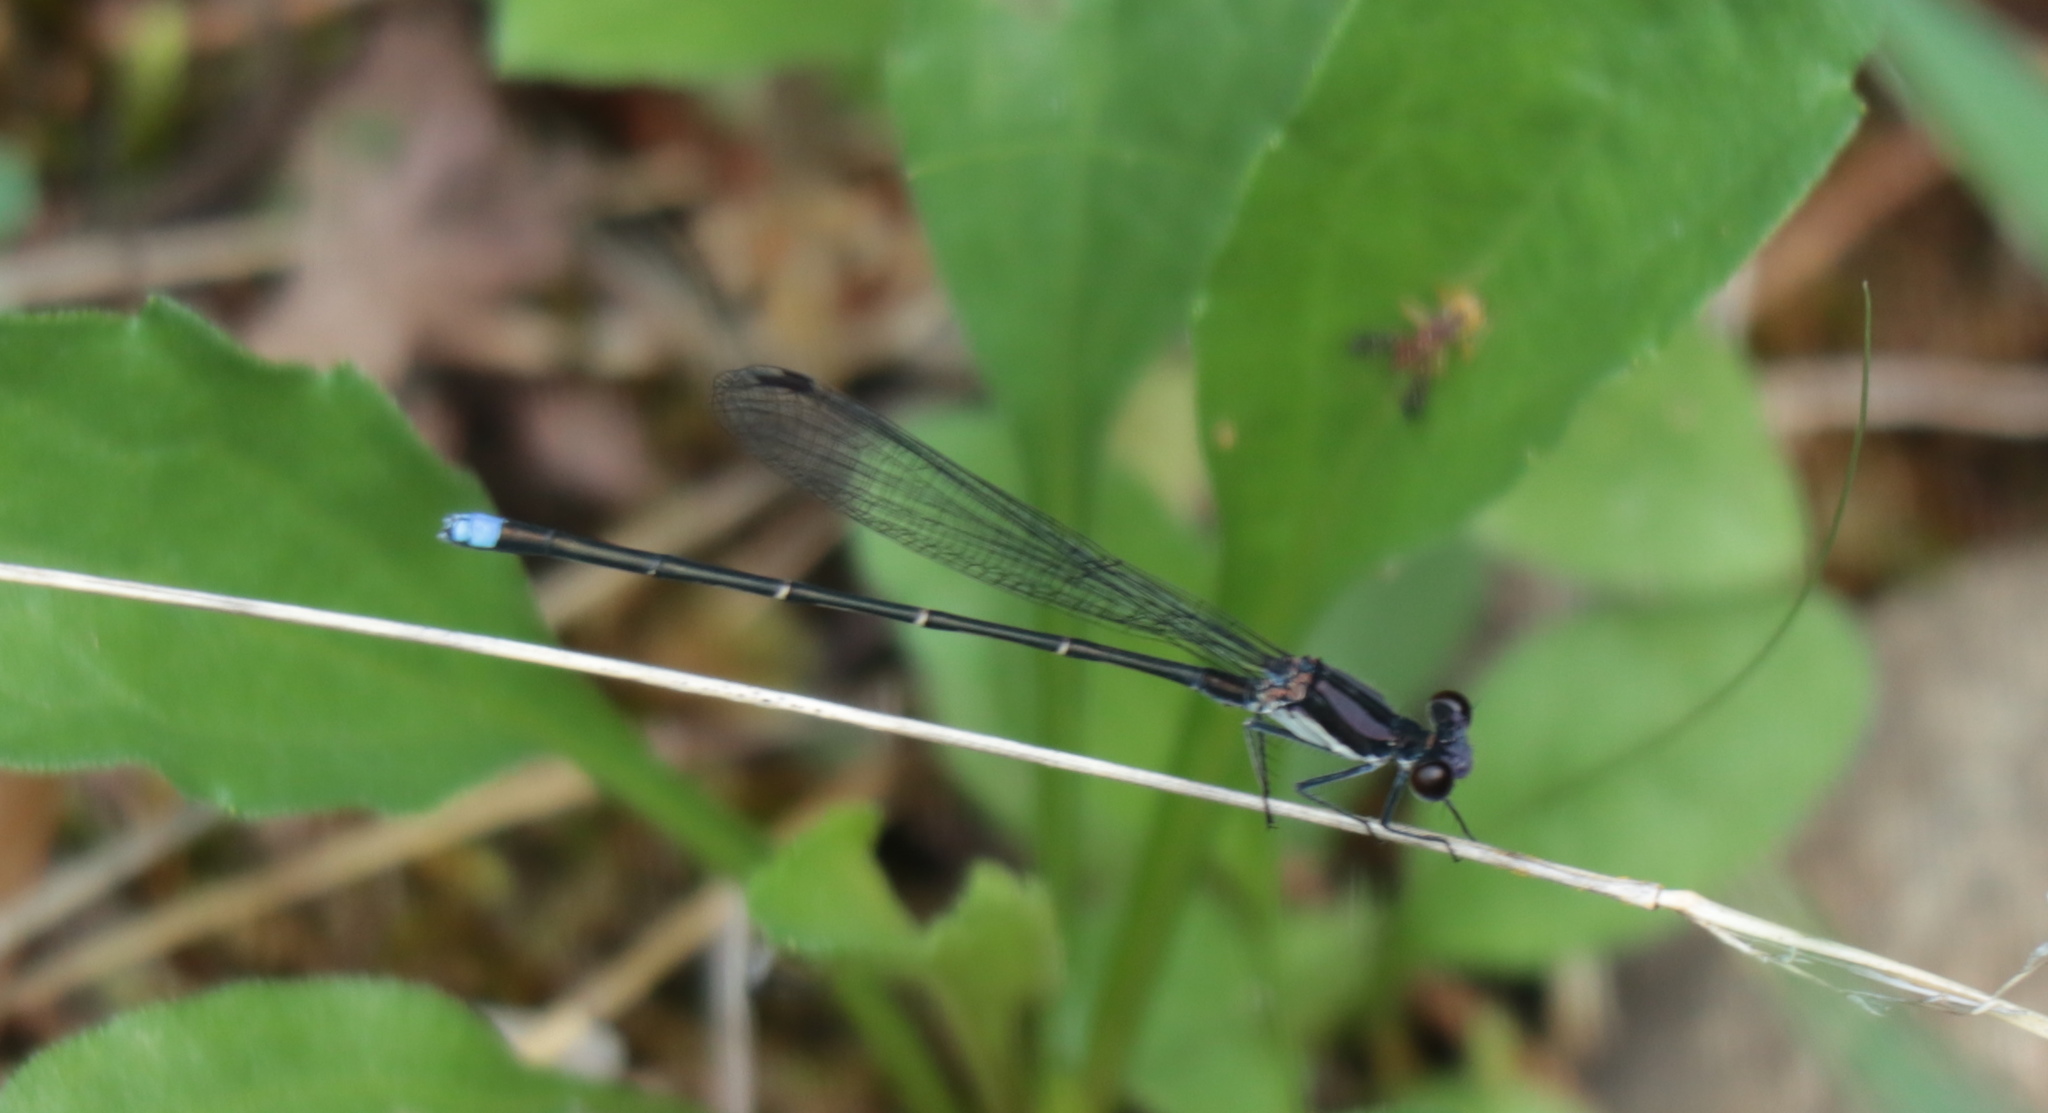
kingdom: Animalia
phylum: Arthropoda
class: Insecta
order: Odonata
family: Coenagrionidae
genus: Argia
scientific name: Argia tibialis
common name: Blue-tipped dancer
